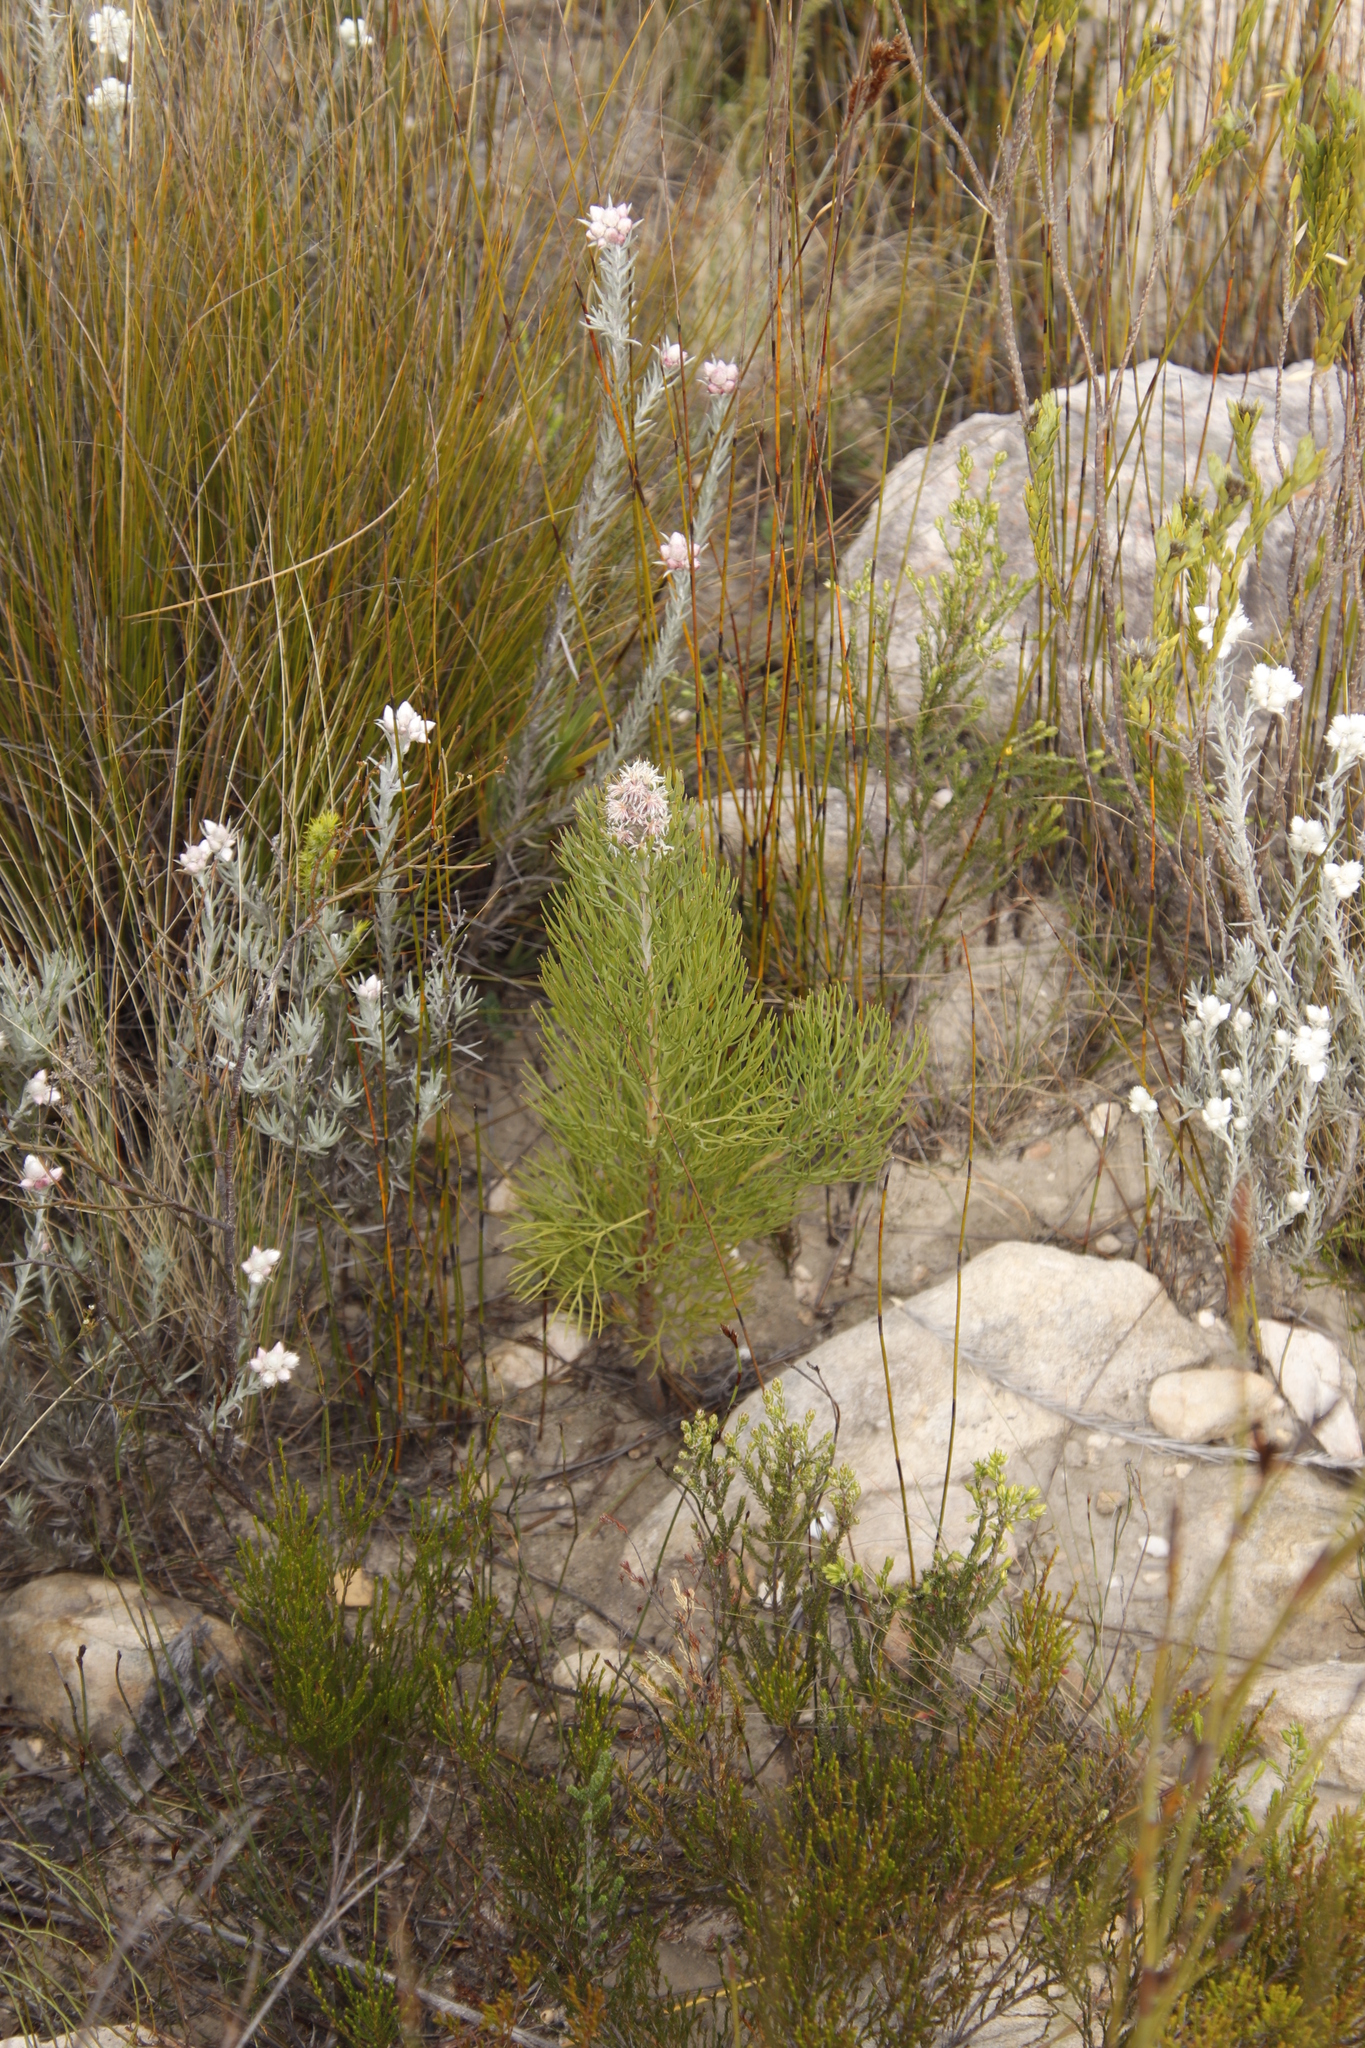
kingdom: Plantae
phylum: Tracheophyta
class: Magnoliopsida
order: Proteales
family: Proteaceae
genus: Paranomus
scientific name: Paranomus dregei
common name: Scented sceptre
